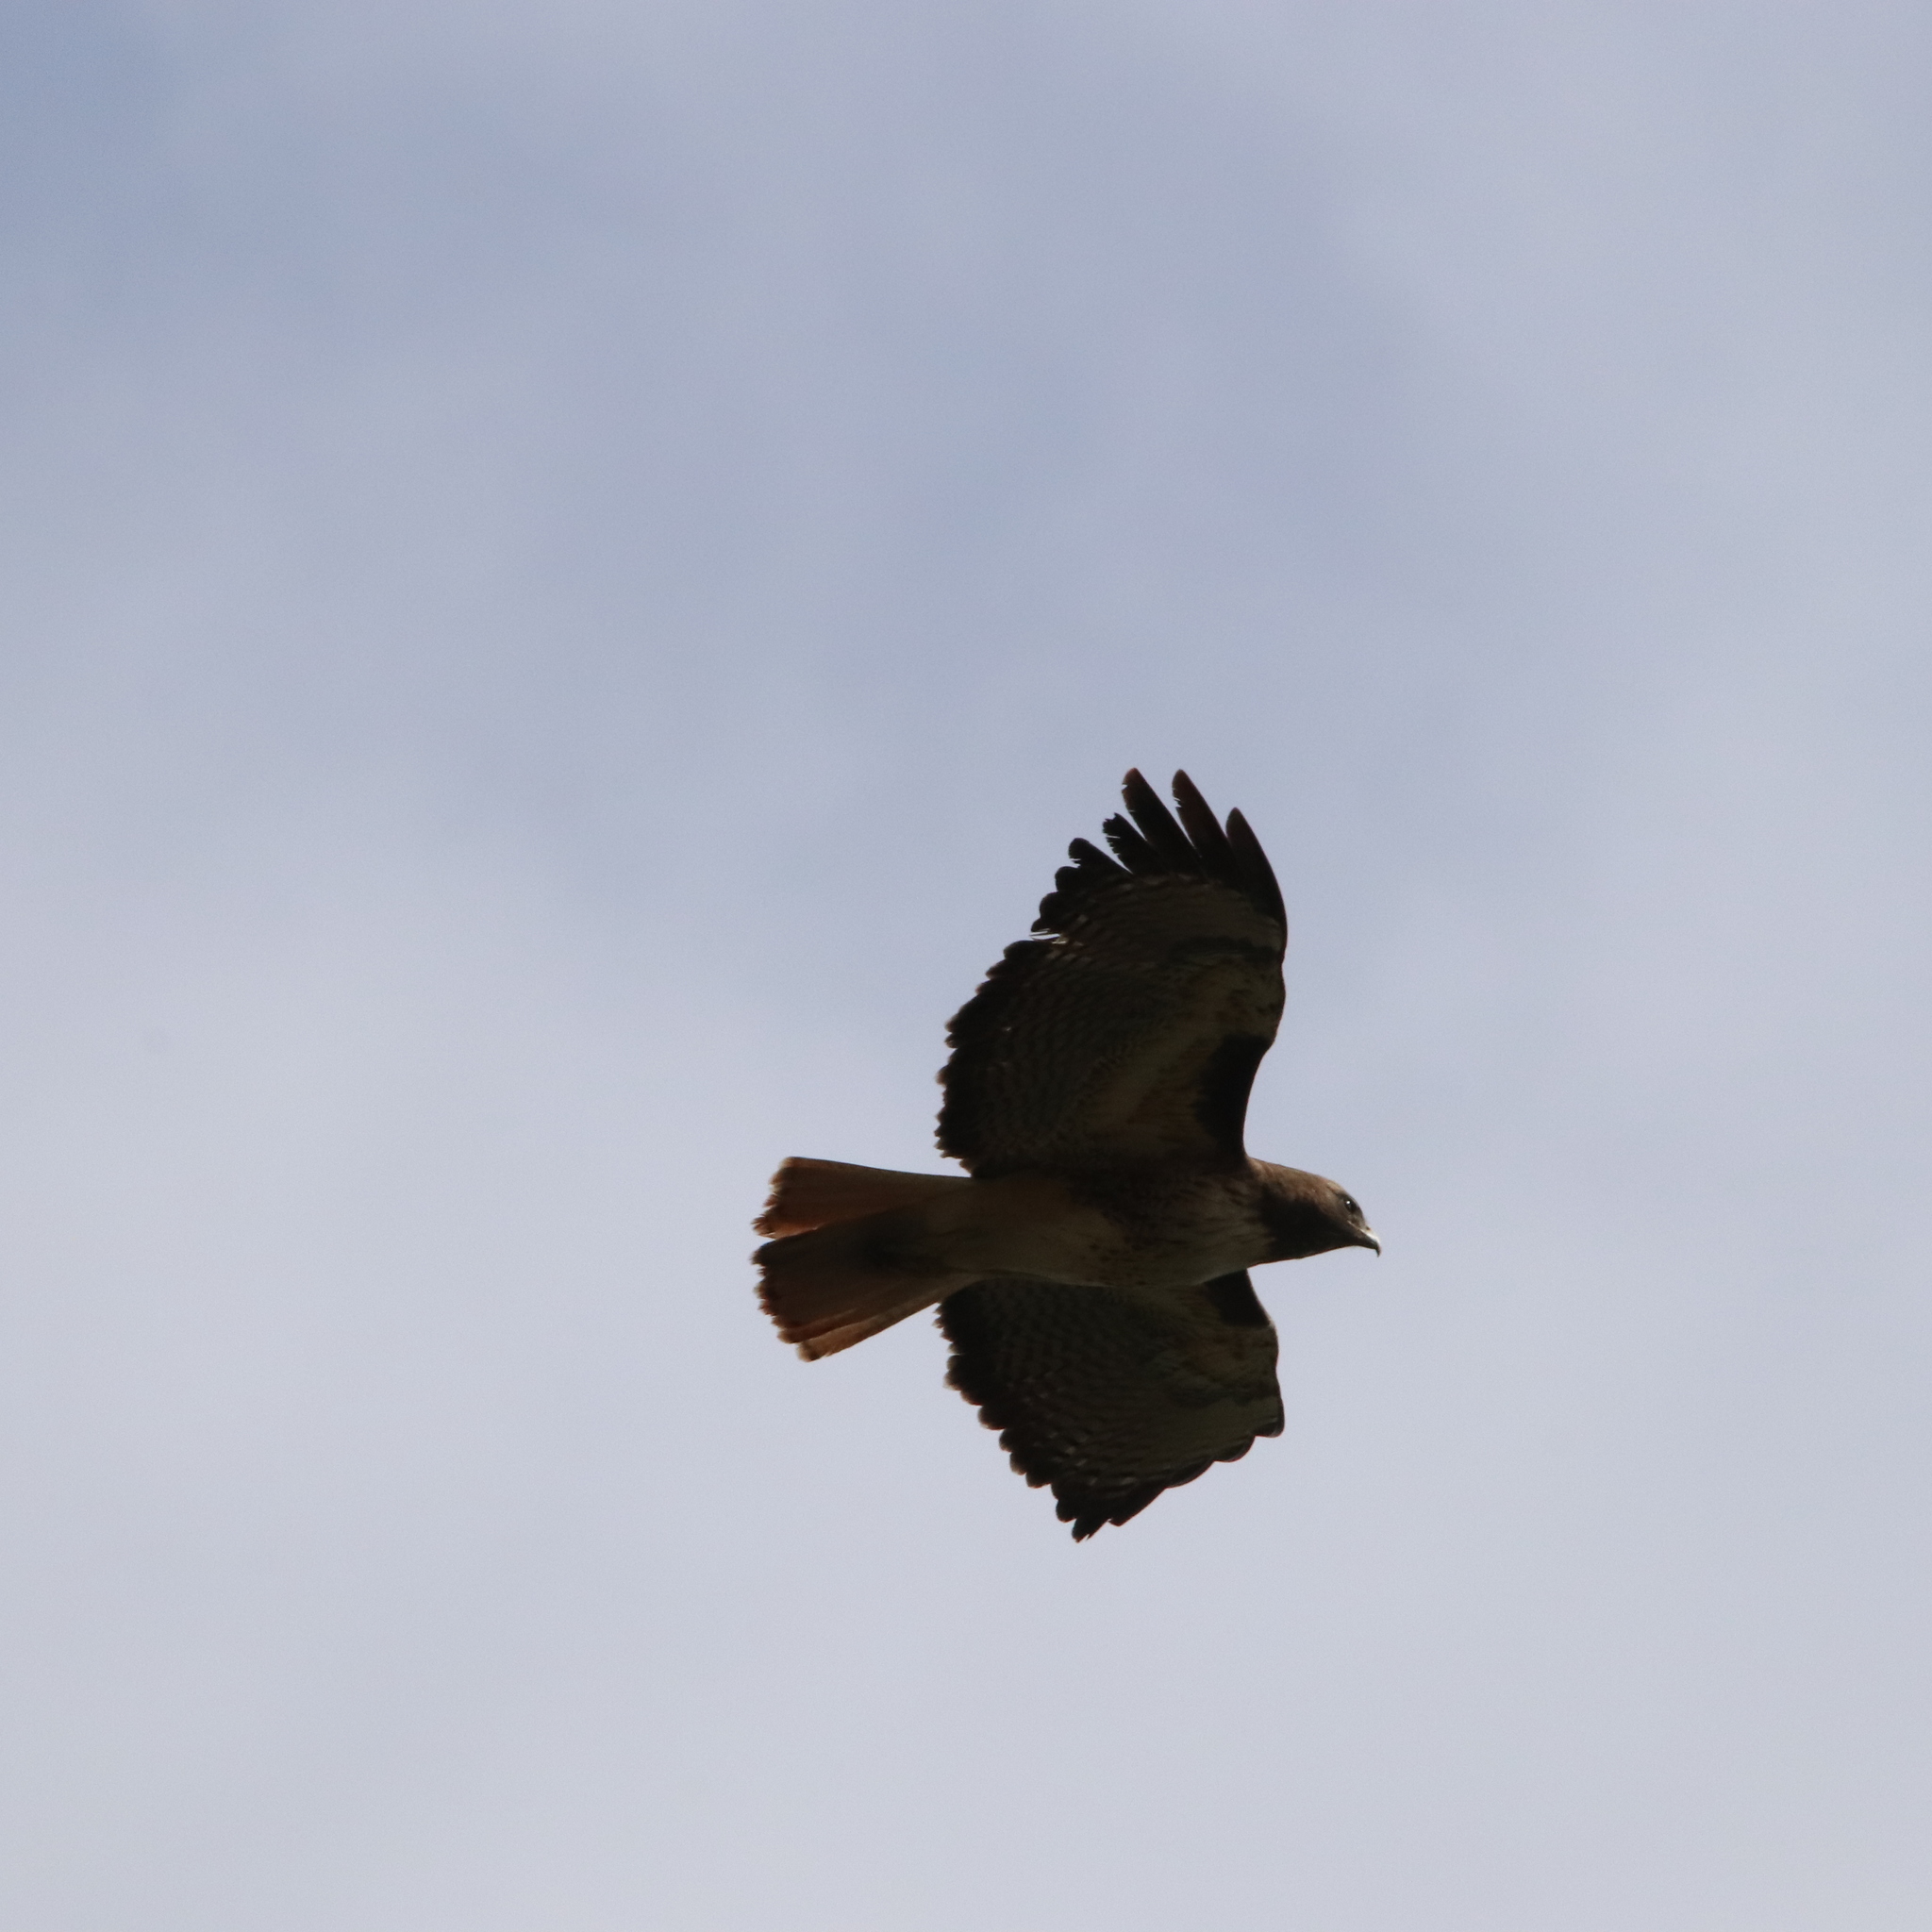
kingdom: Animalia
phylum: Chordata
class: Aves
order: Accipitriformes
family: Accipitridae
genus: Buteo
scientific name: Buteo jamaicensis
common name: Red-tailed hawk
